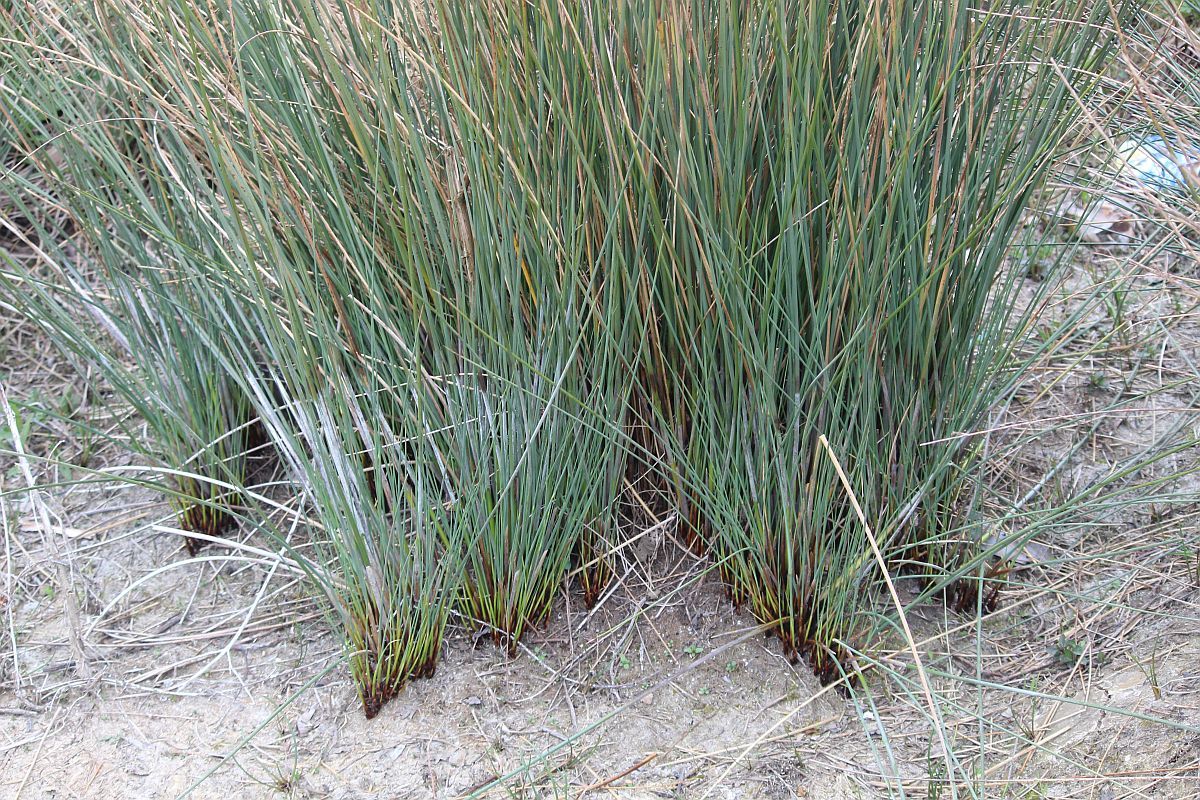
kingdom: Plantae
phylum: Tracheophyta
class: Liliopsida
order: Poales
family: Juncaceae
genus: Juncus
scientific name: Juncus inflexus
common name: Hard rush
